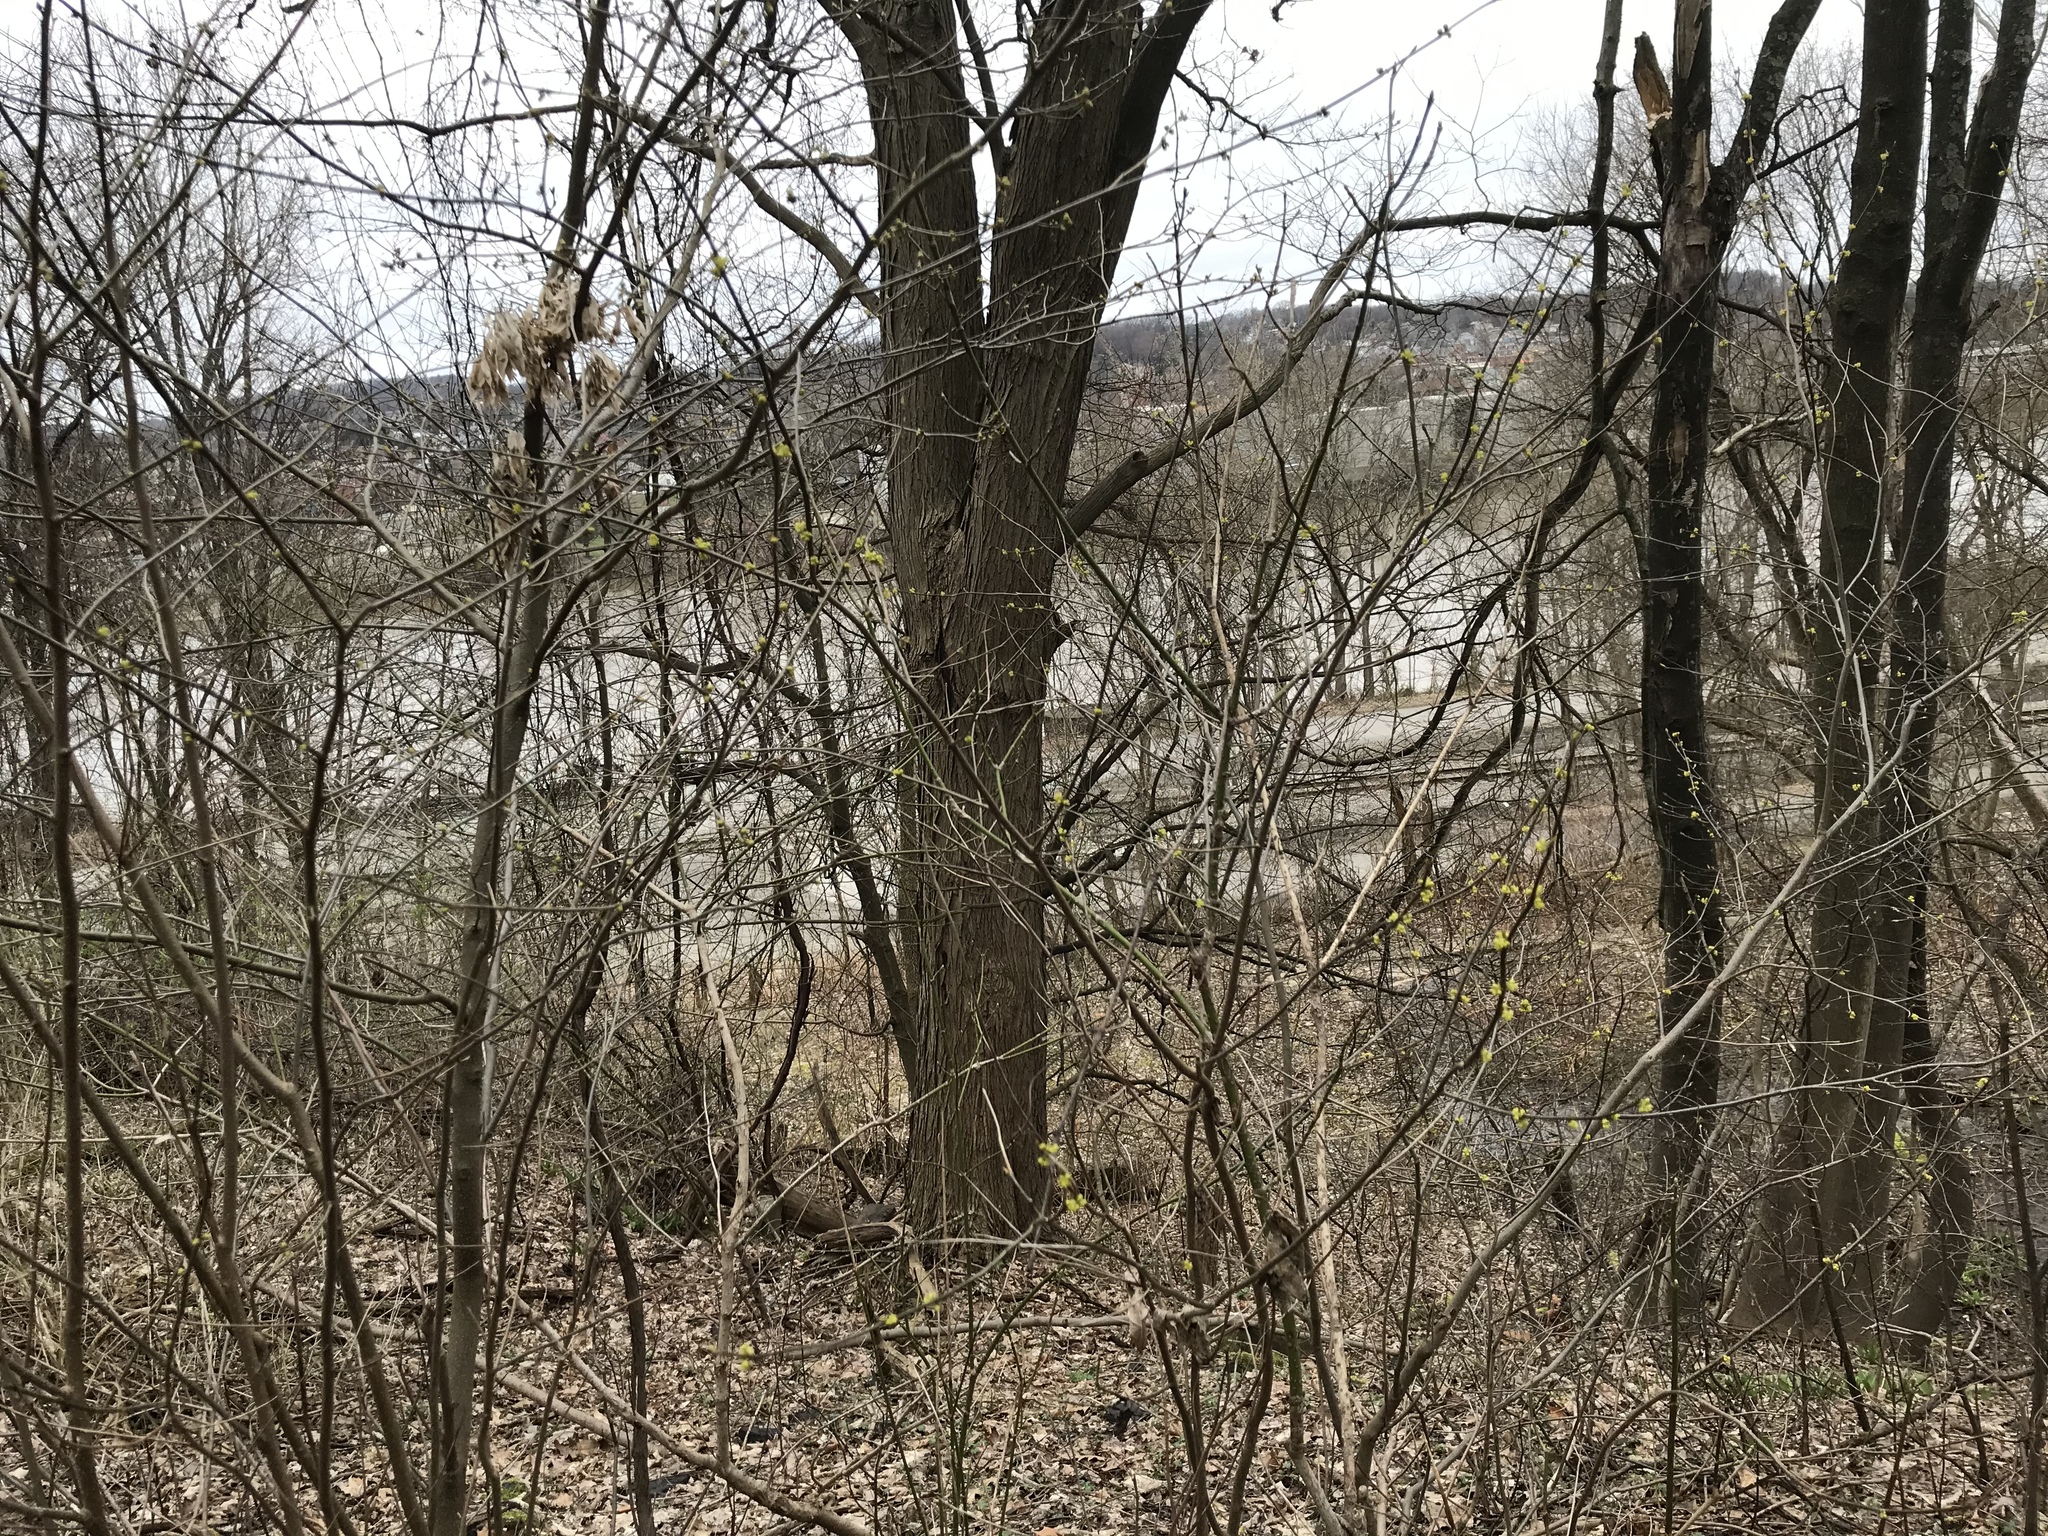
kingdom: Plantae
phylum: Tracheophyta
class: Magnoliopsida
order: Laurales
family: Lauraceae
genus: Lindera
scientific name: Lindera benzoin
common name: Spicebush
